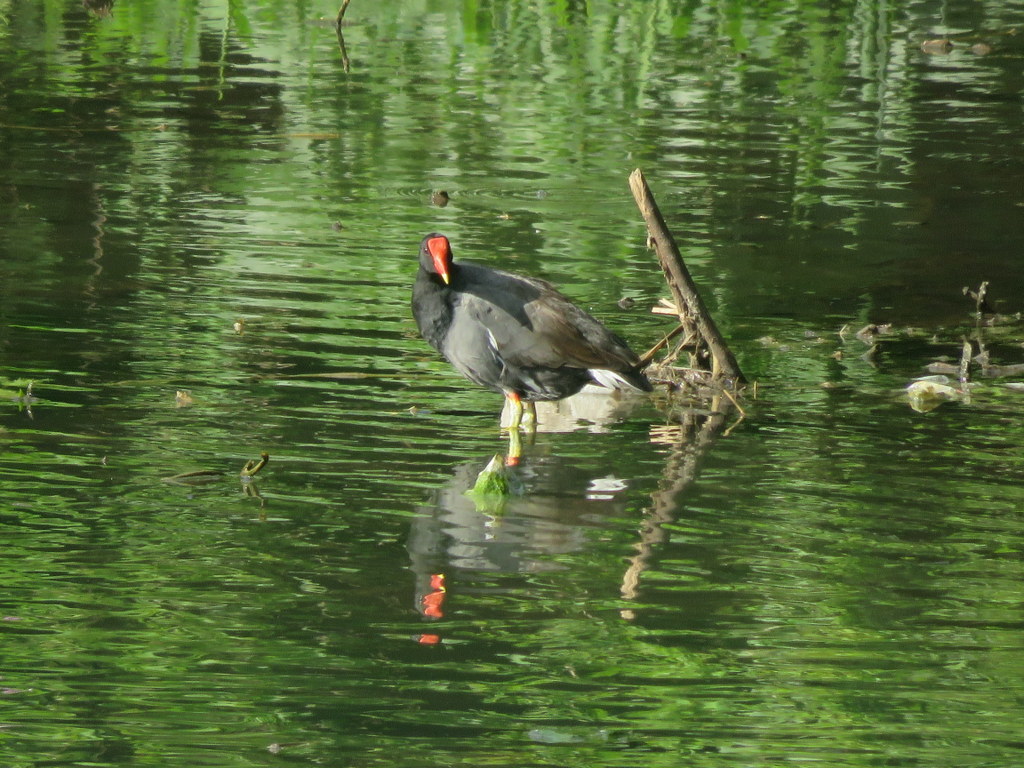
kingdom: Animalia
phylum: Chordata
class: Aves
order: Gruiformes
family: Rallidae
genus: Gallinula
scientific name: Gallinula chloropus
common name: Common moorhen
